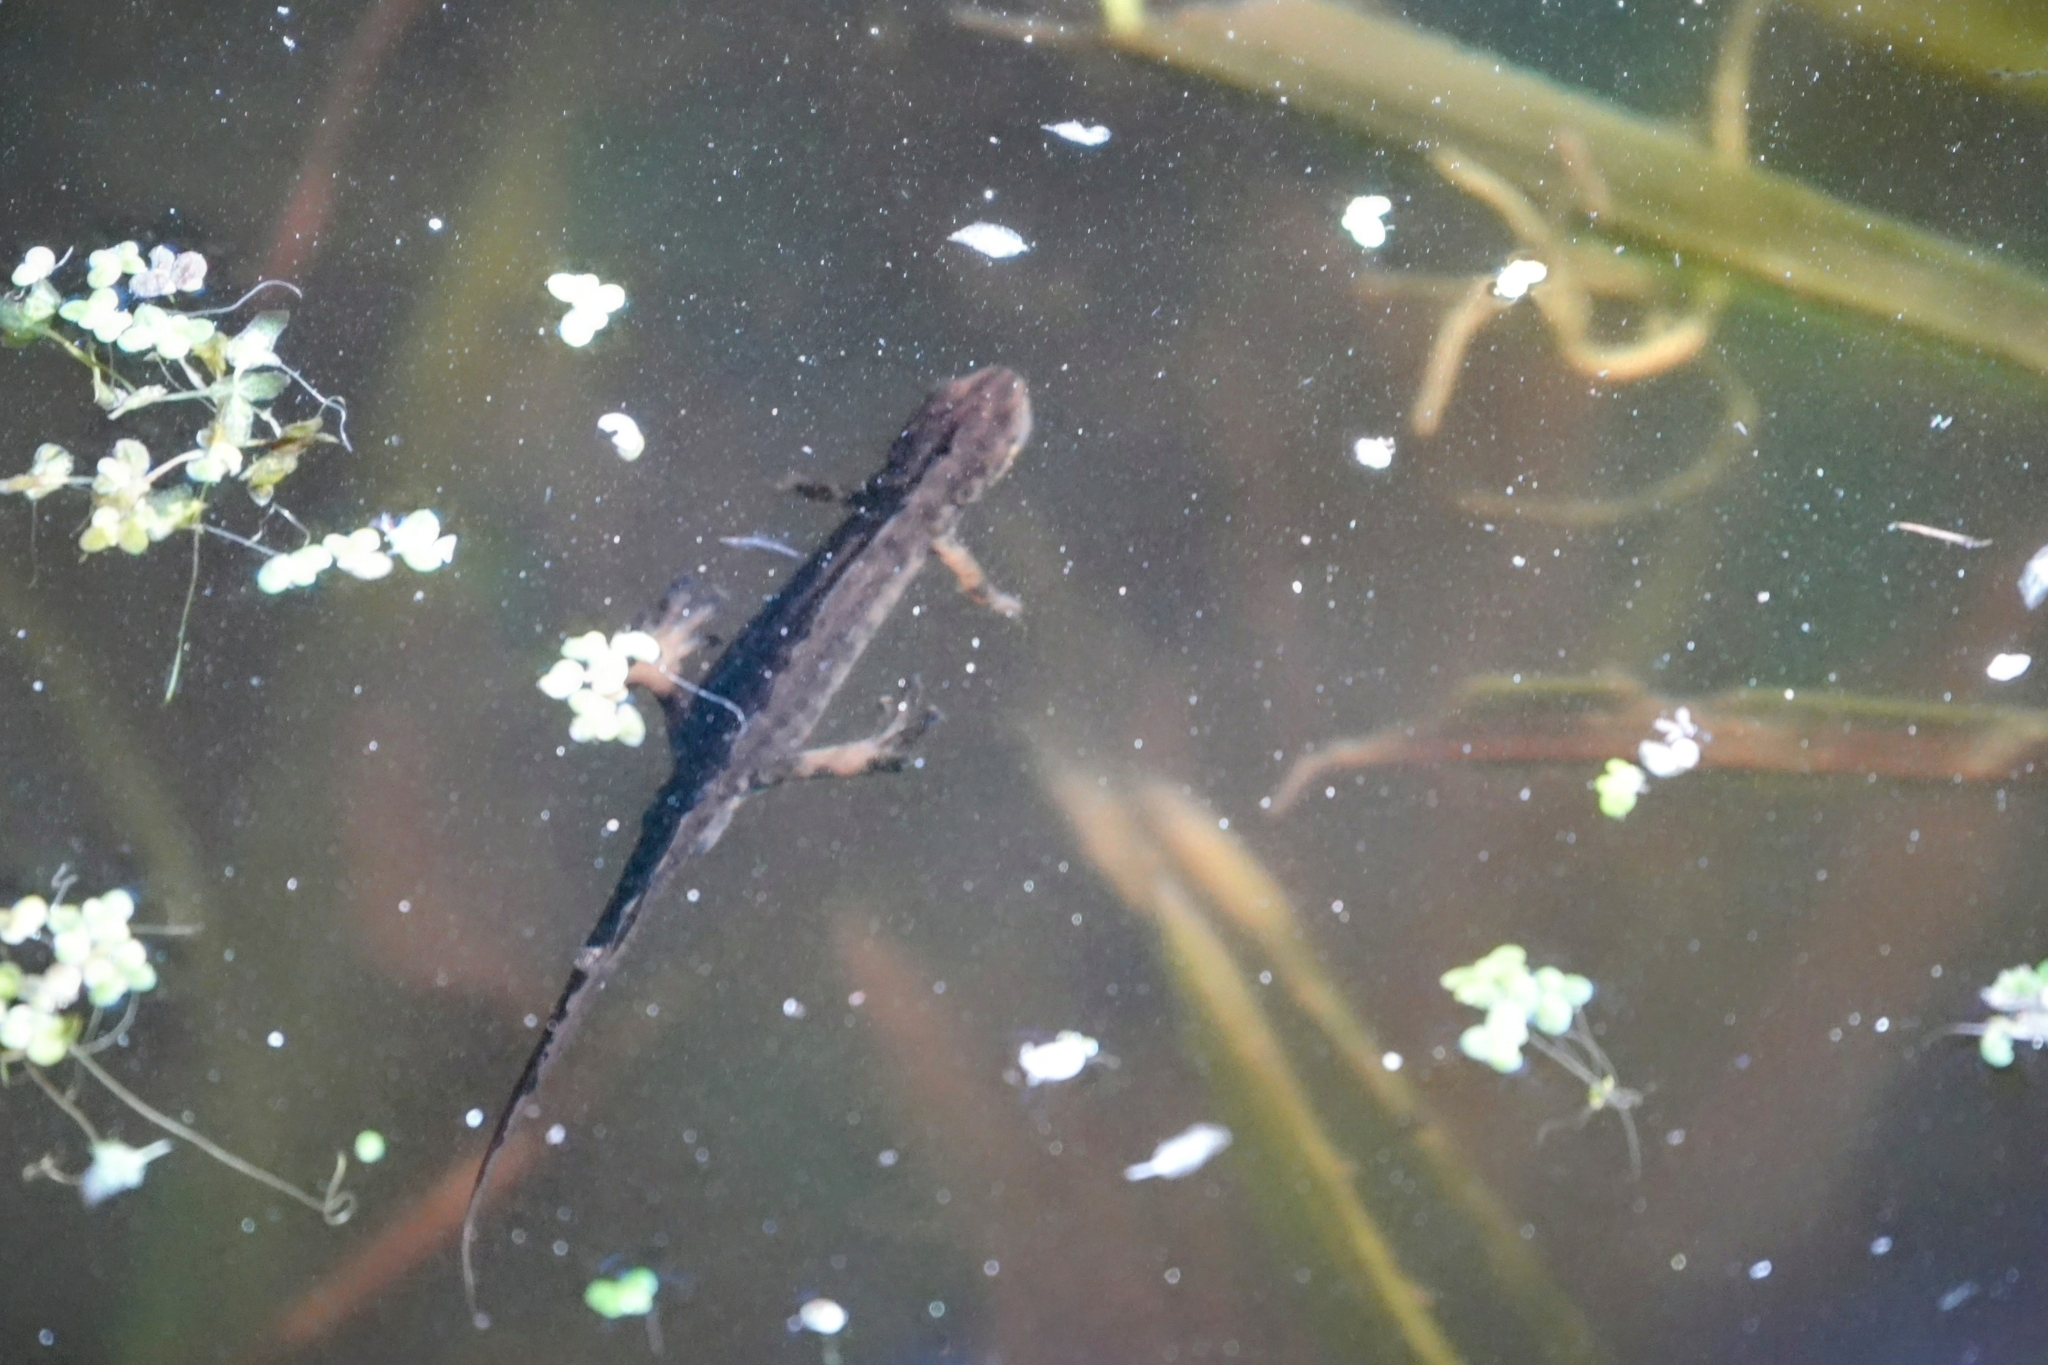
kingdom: Animalia
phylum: Chordata
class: Amphibia
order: Caudata
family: Salamandridae
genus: Lissotriton
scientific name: Lissotriton vulgaris
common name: Smooth newt
